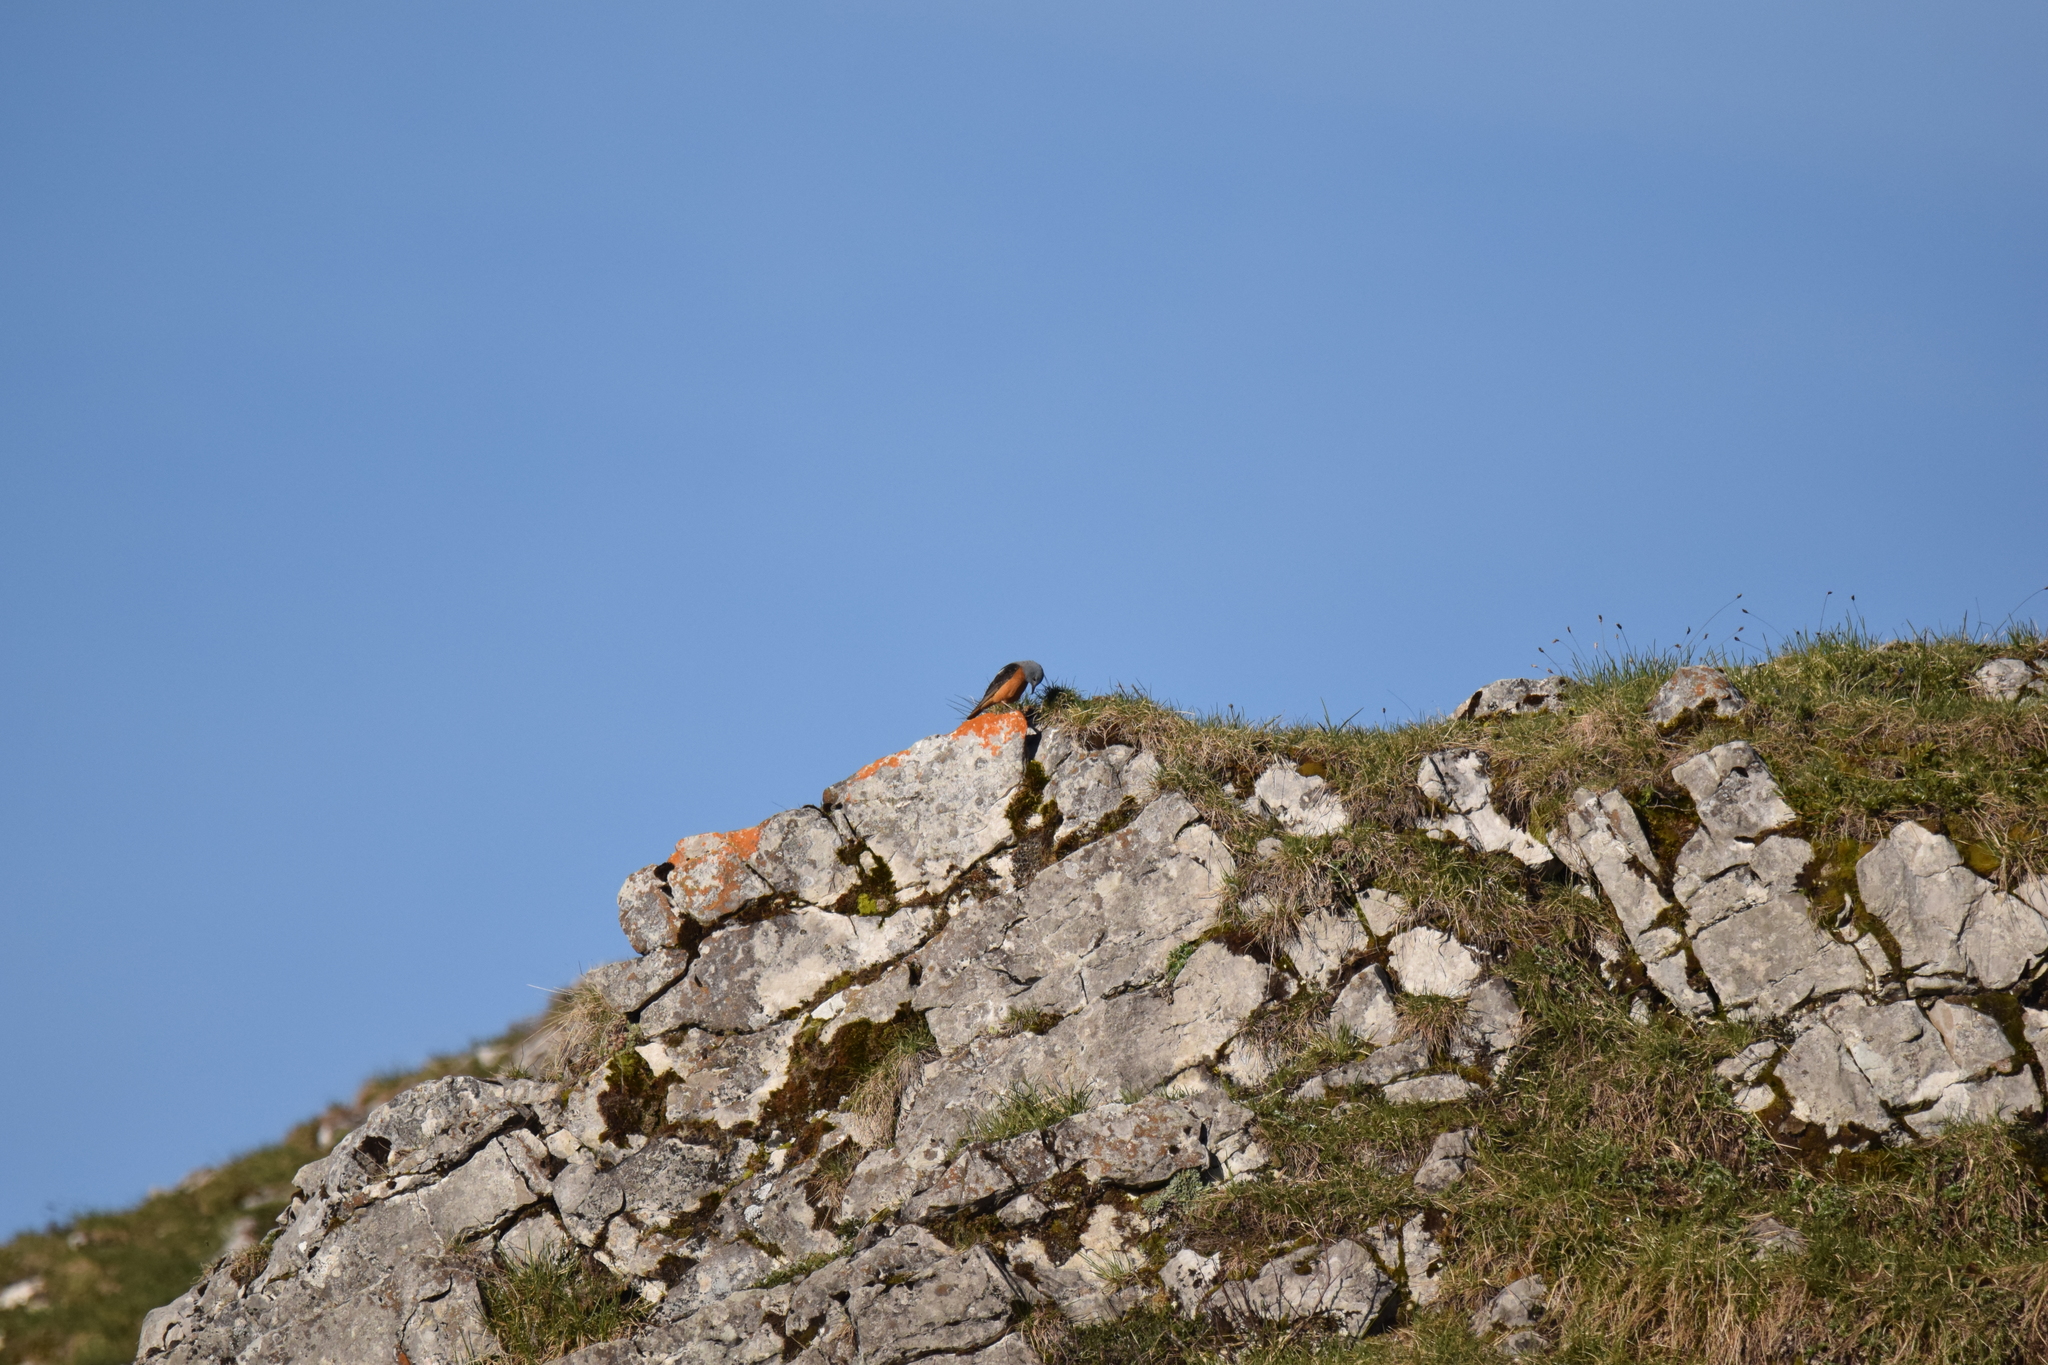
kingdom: Animalia
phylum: Chordata
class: Aves
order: Passeriformes
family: Muscicapidae
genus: Monticola
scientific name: Monticola saxatilis
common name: Rufous-tailed rock thrush
